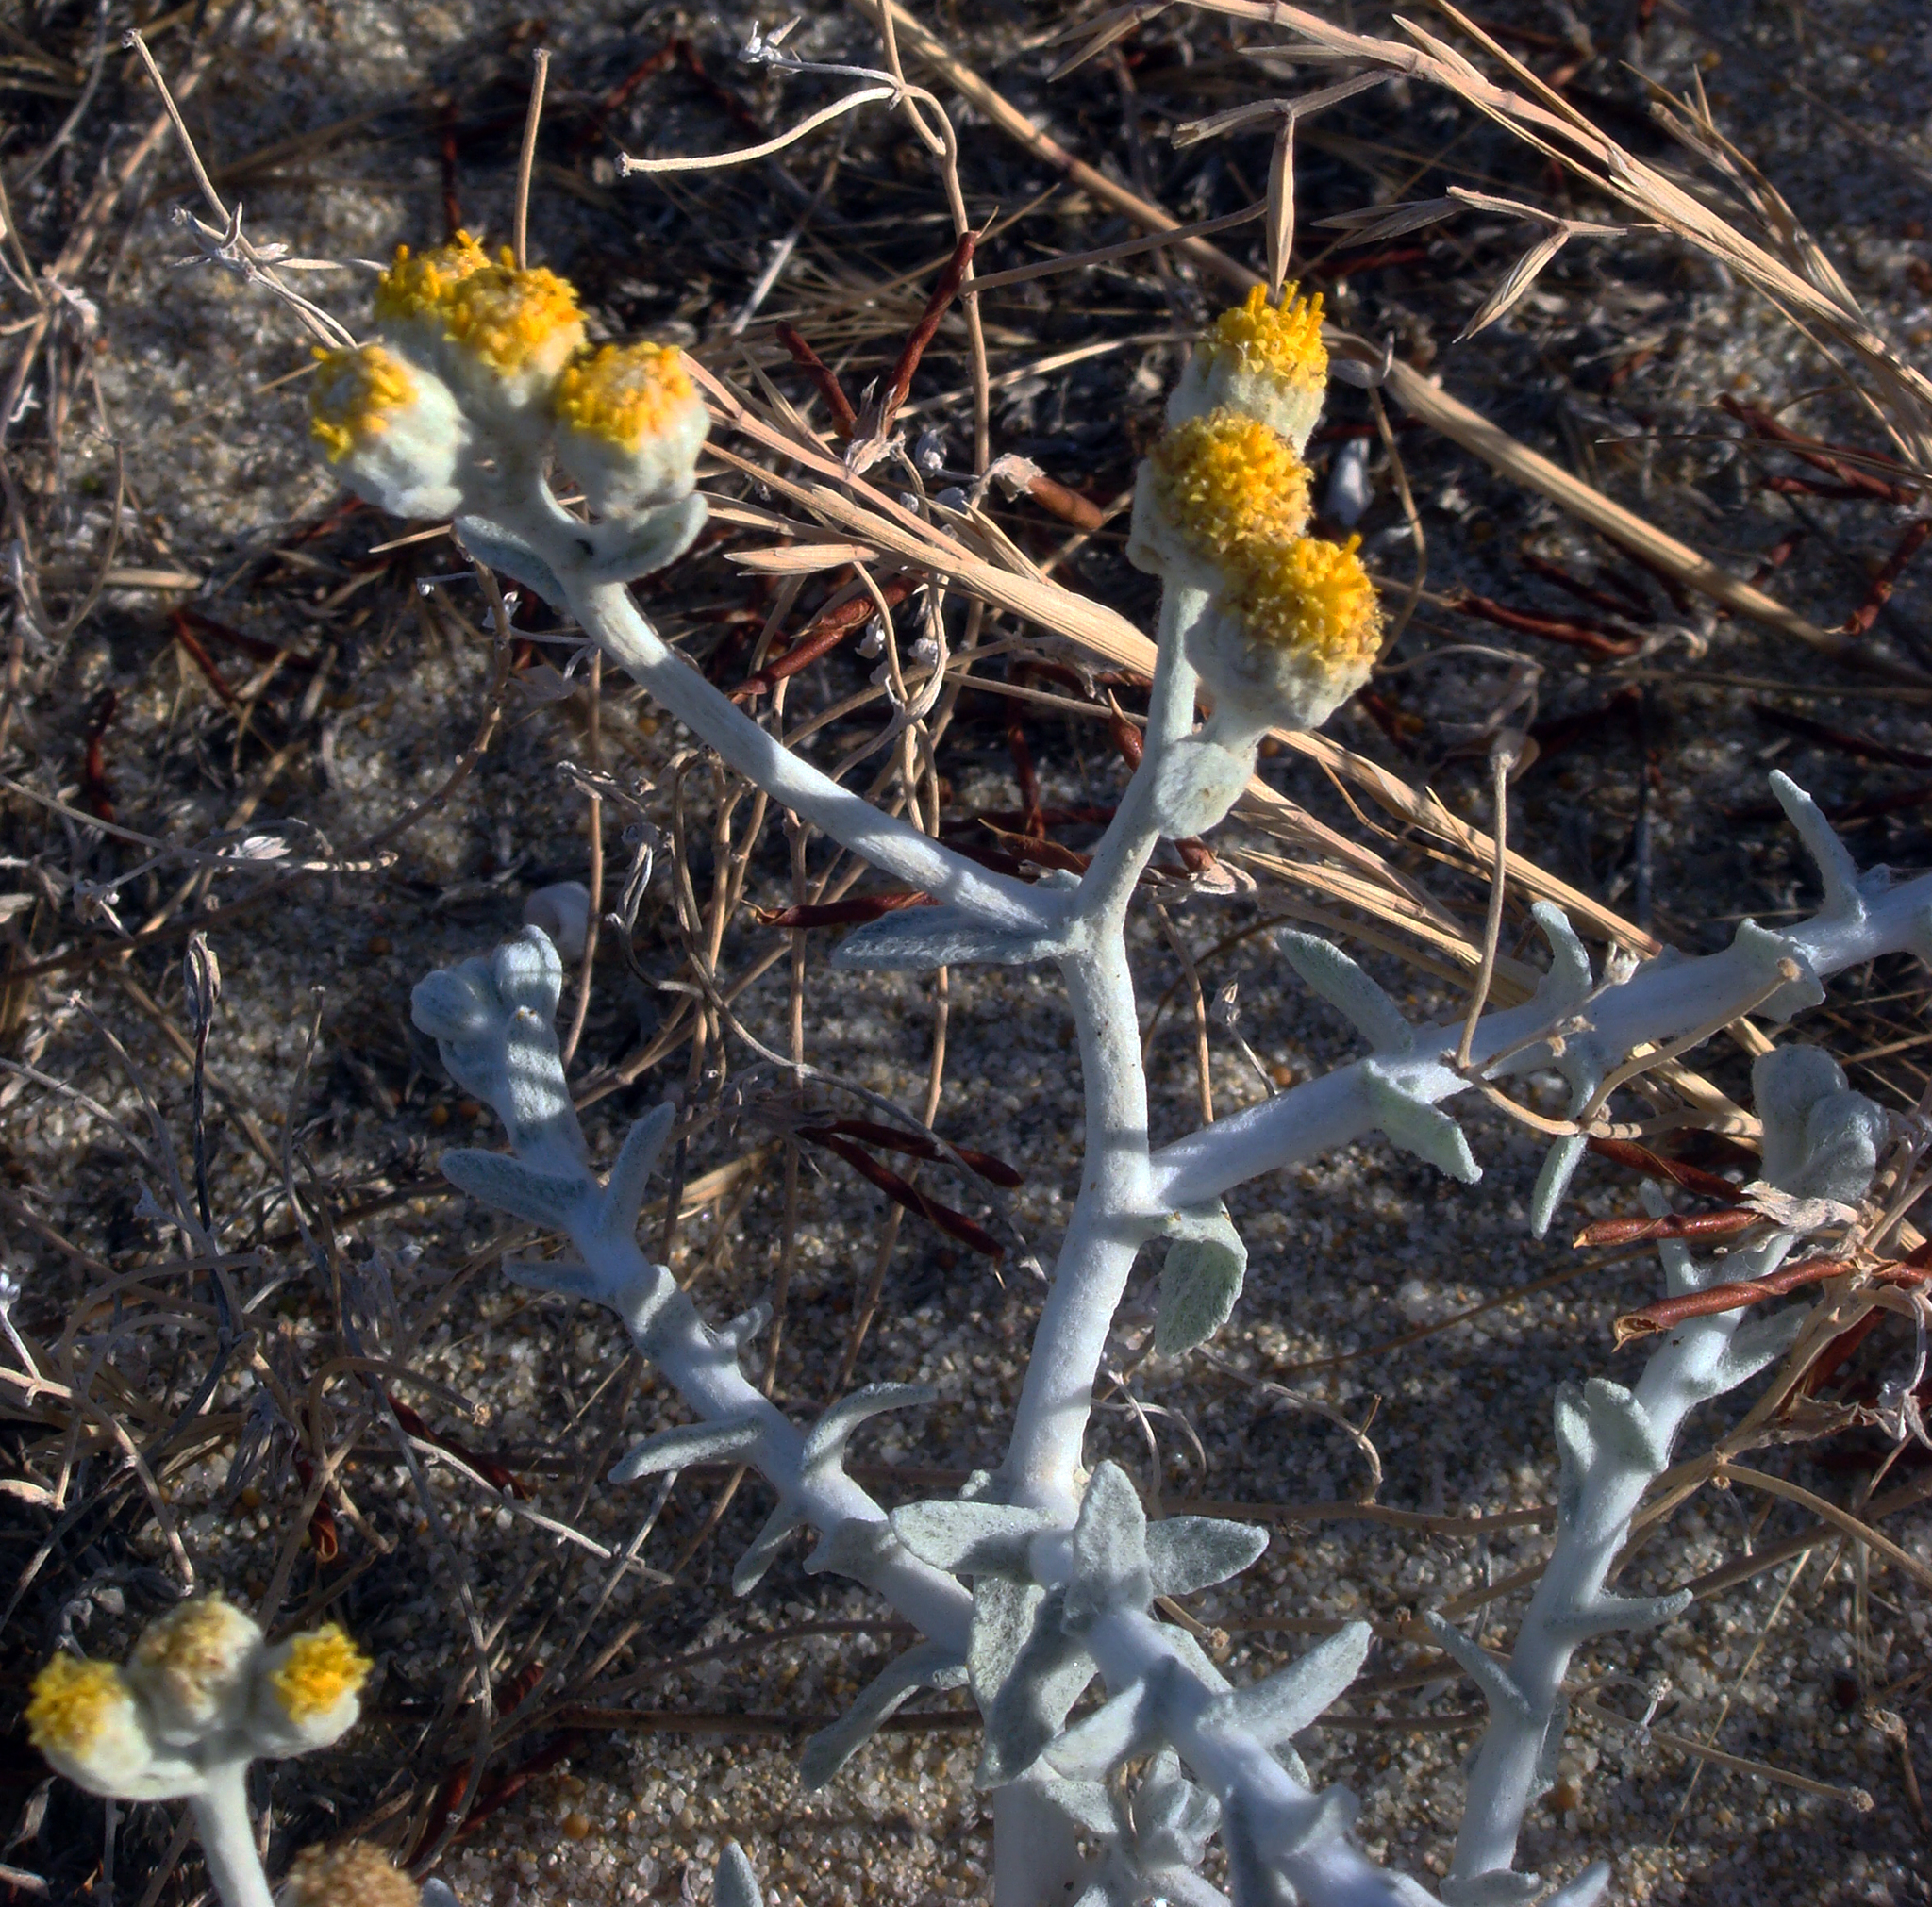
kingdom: Plantae
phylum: Tracheophyta
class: Magnoliopsida
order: Asterales
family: Asteraceae
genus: Achillea
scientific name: Achillea maritima
